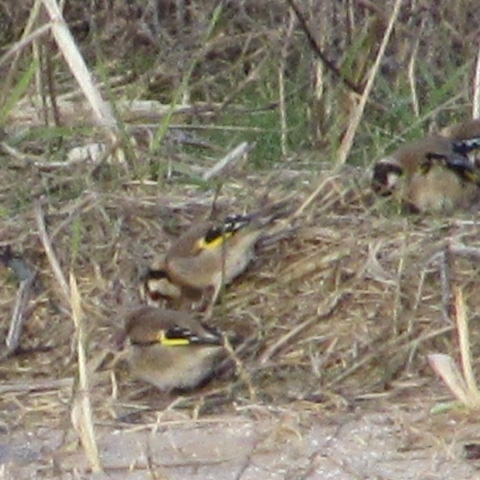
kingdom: Animalia
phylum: Chordata
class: Aves
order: Passeriformes
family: Fringillidae
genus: Carduelis
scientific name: Carduelis carduelis
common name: European goldfinch
